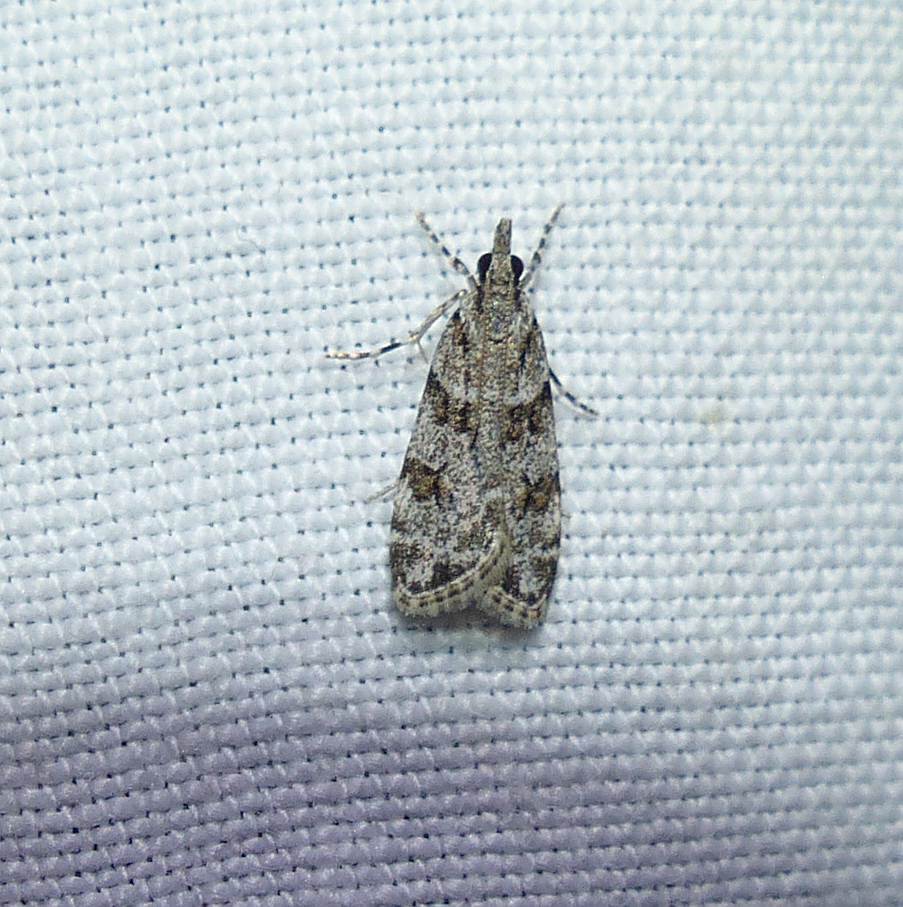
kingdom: Animalia
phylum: Arthropoda
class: Insecta
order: Lepidoptera
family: Crambidae
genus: Scoparia
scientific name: Scoparia biplagialis
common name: Double-striped scoparia moth
